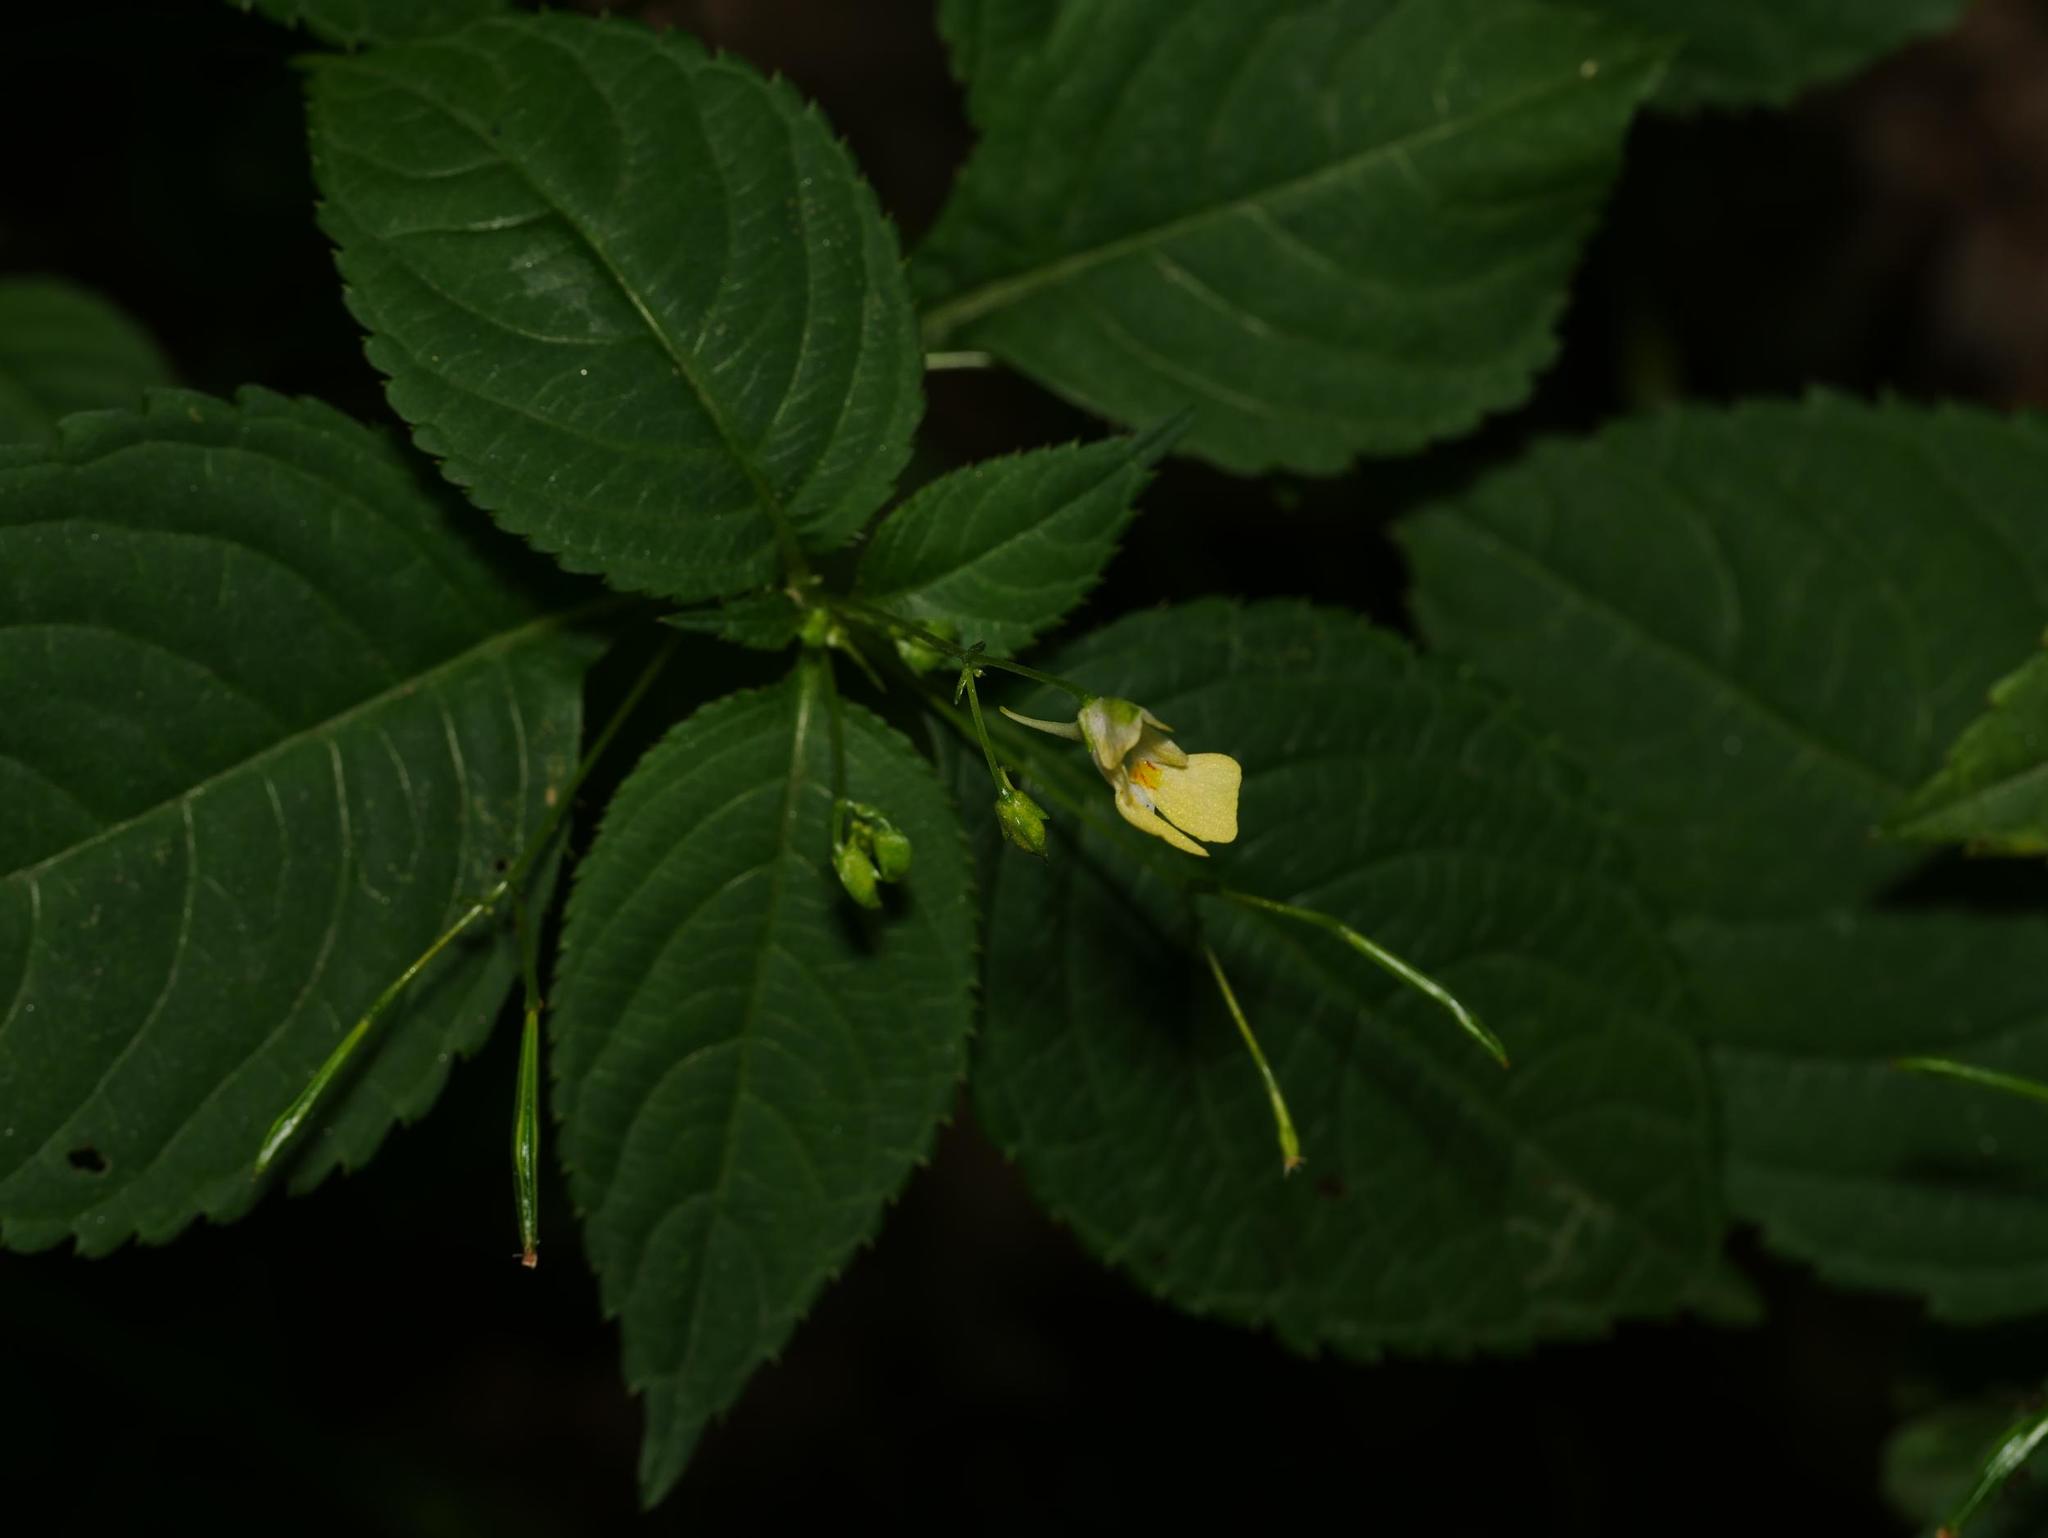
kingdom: Plantae
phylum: Tracheophyta
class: Magnoliopsida
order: Ericales
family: Balsaminaceae
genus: Impatiens
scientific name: Impatiens parviflora
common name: Small balsam
